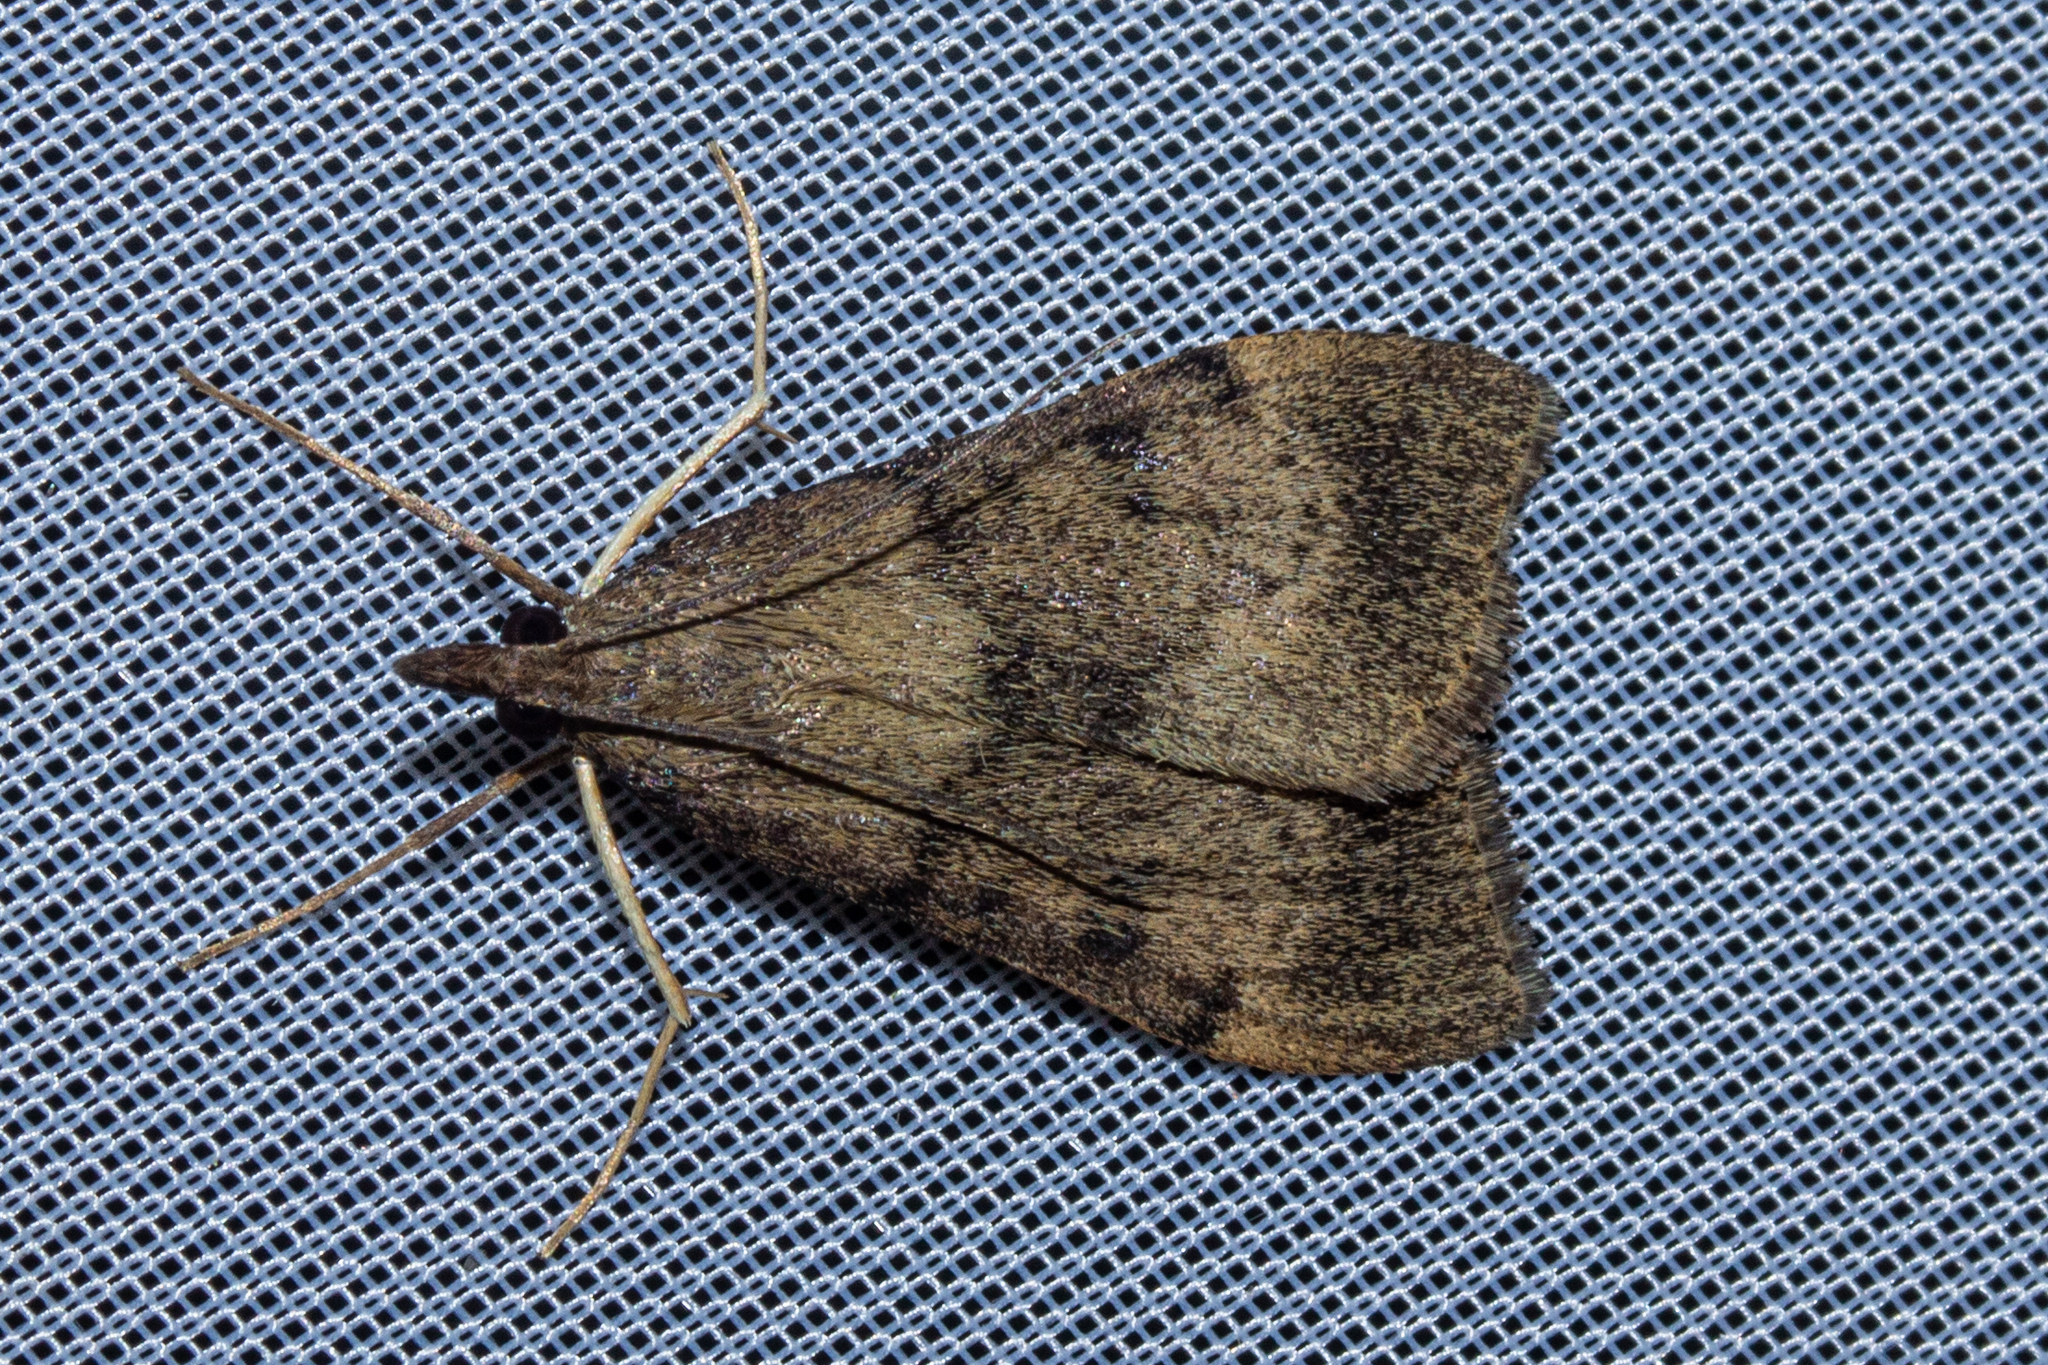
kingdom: Animalia
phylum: Arthropoda
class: Insecta
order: Lepidoptera
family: Crambidae
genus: Uresiphita
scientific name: Uresiphita
